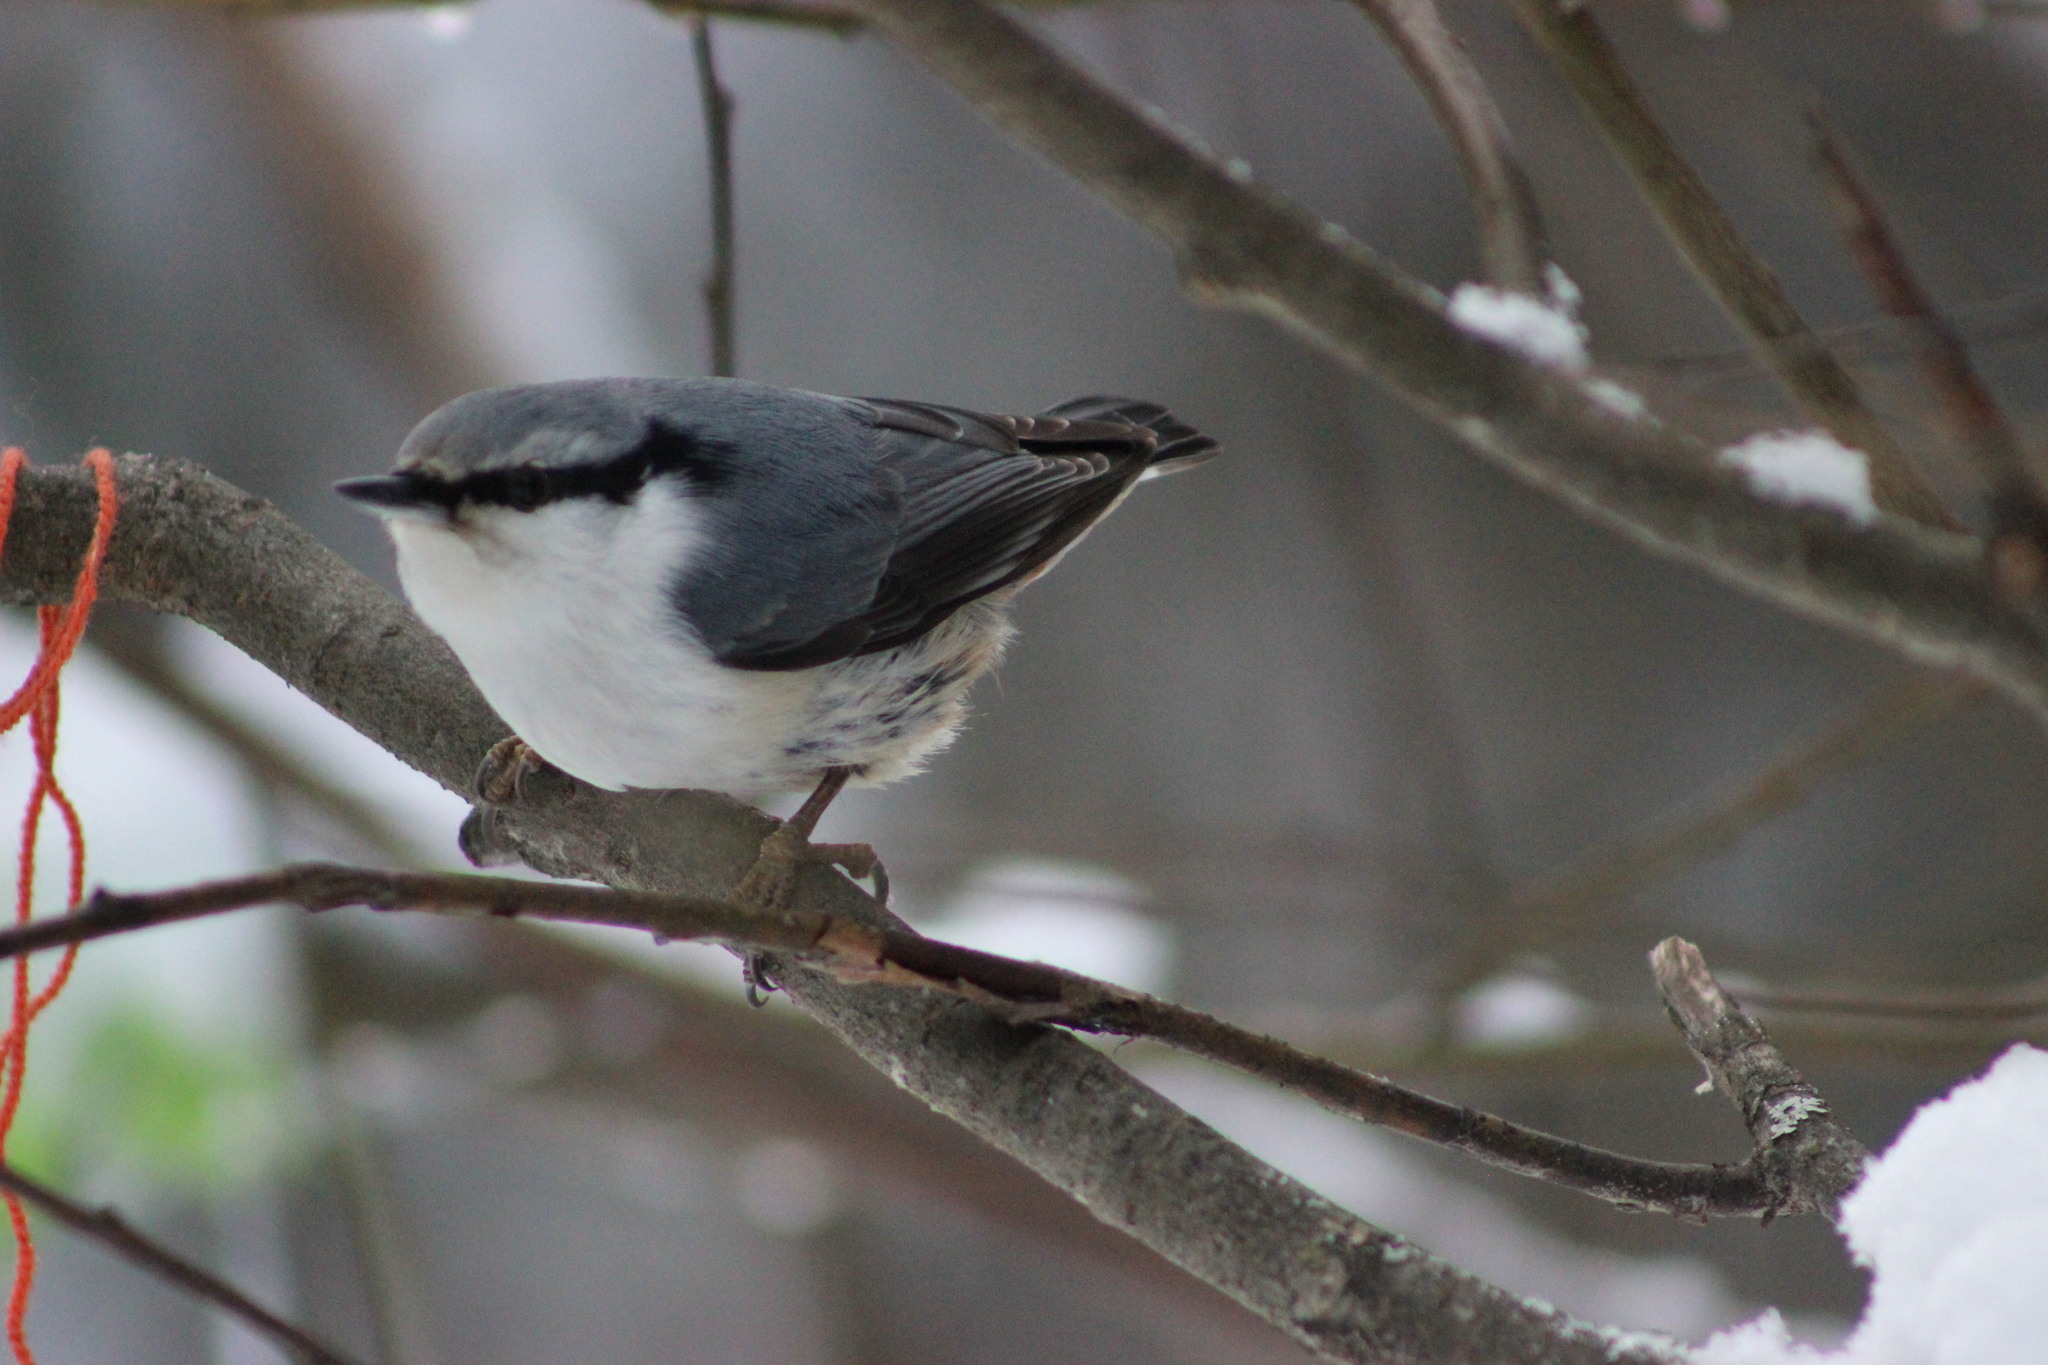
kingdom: Animalia
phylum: Chordata
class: Aves
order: Passeriformes
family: Sittidae
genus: Sitta
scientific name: Sitta europaea
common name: Eurasian nuthatch
